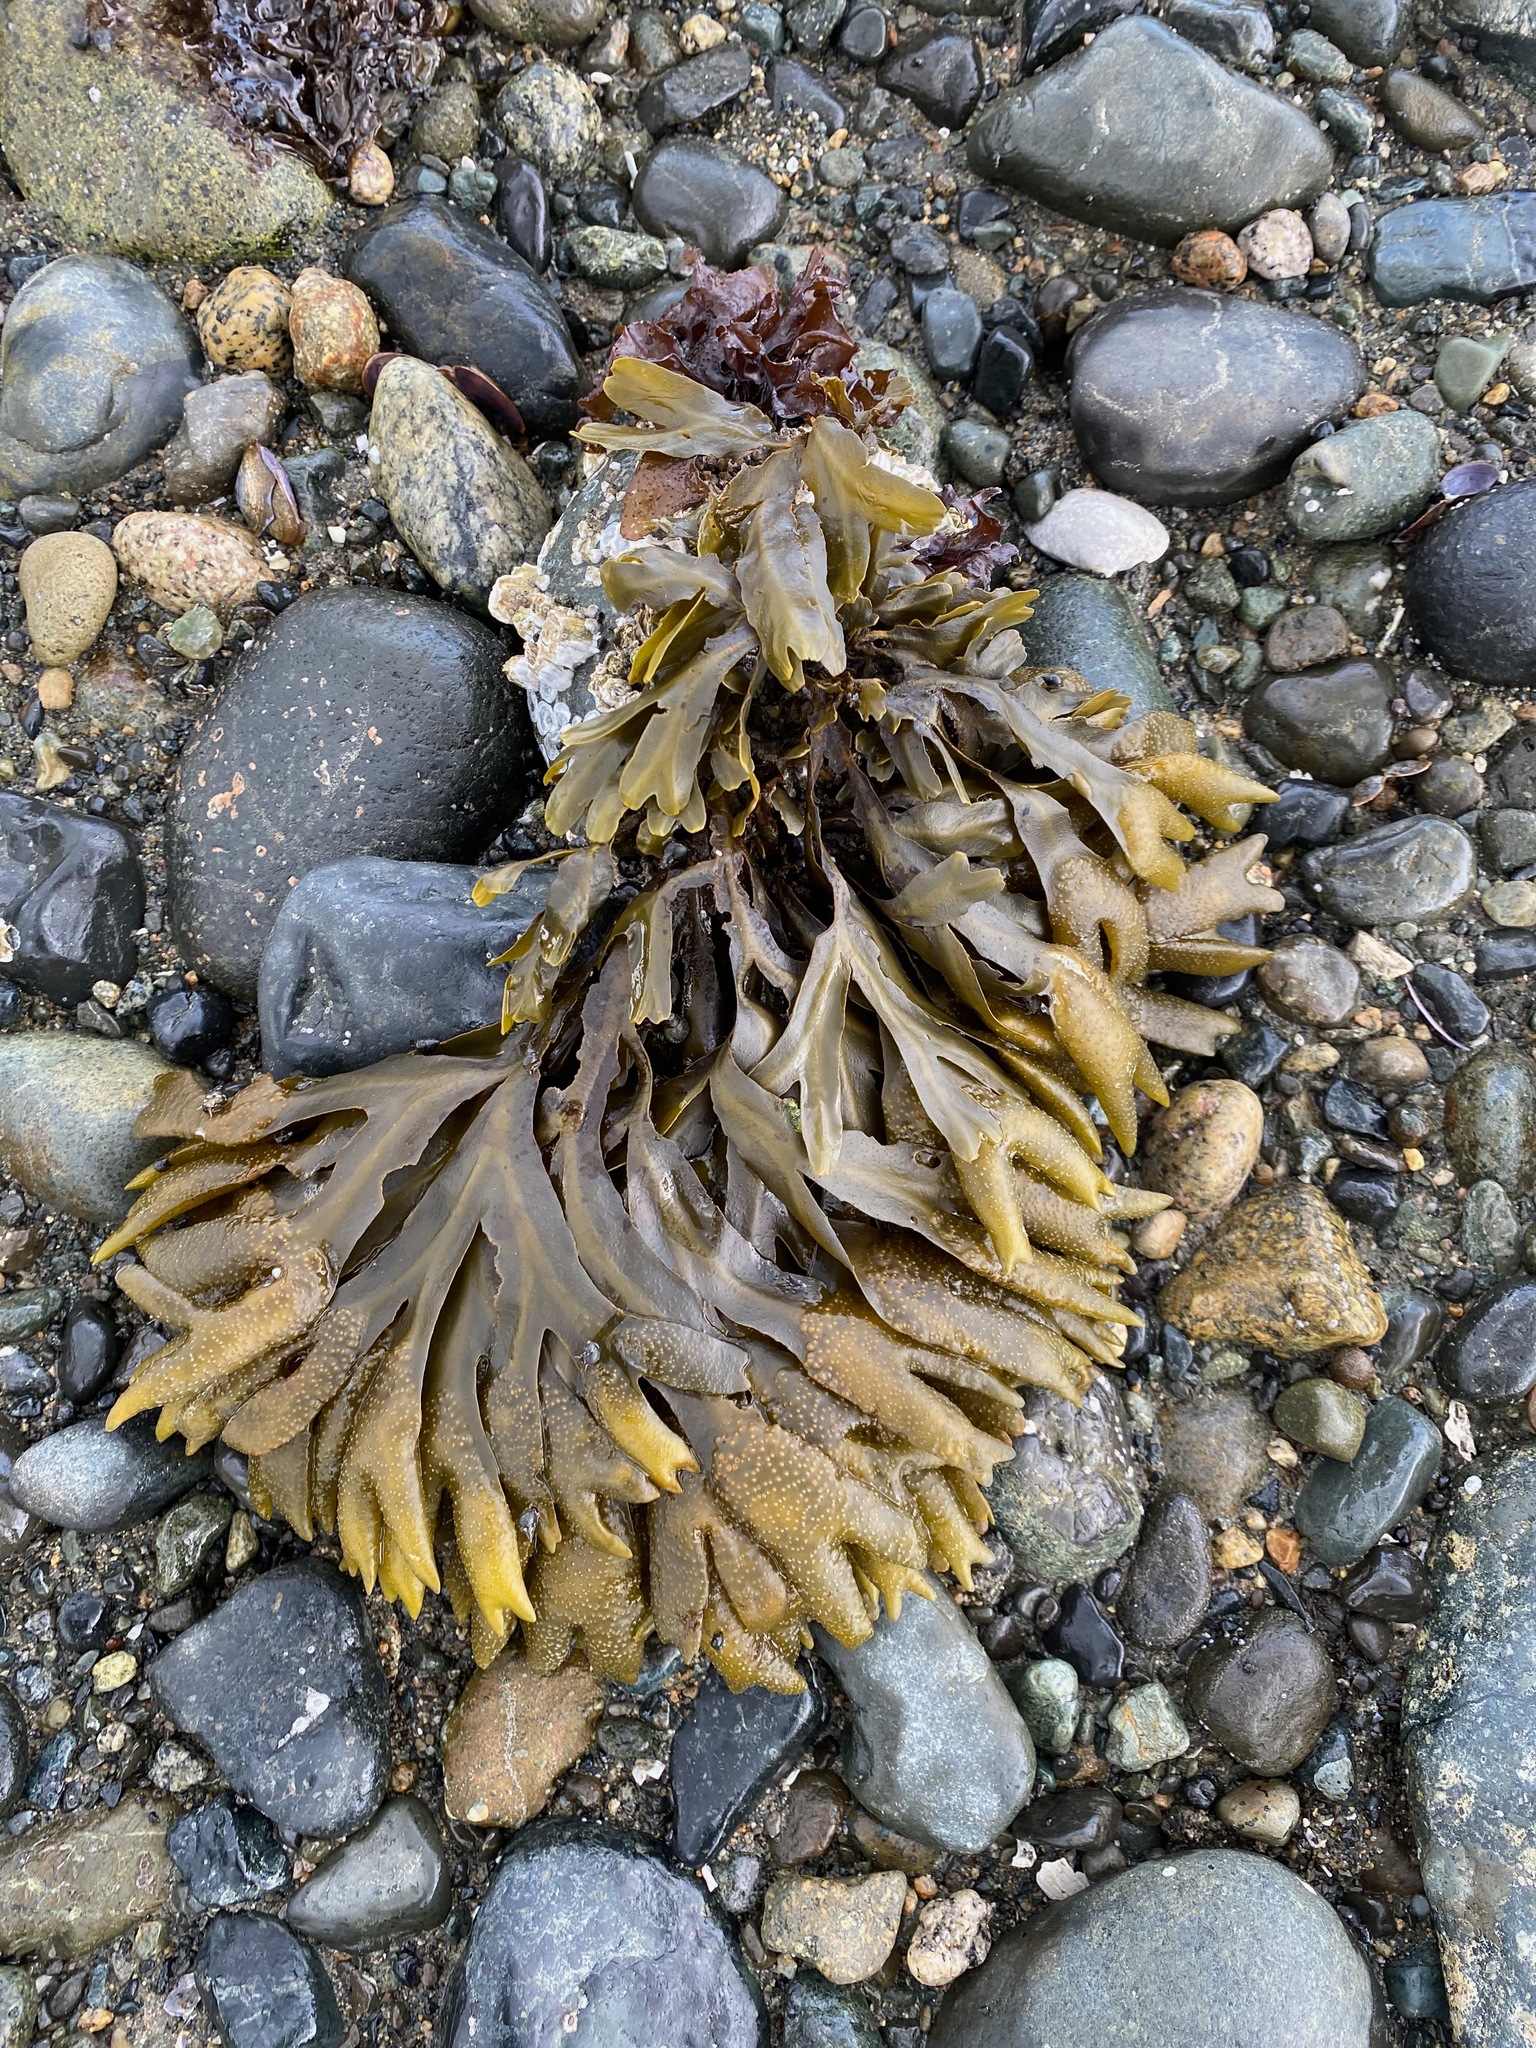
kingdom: Chromista
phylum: Ochrophyta
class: Phaeophyceae
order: Fucales
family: Fucaceae
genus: Fucus
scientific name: Fucus distichus
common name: Rockweed
